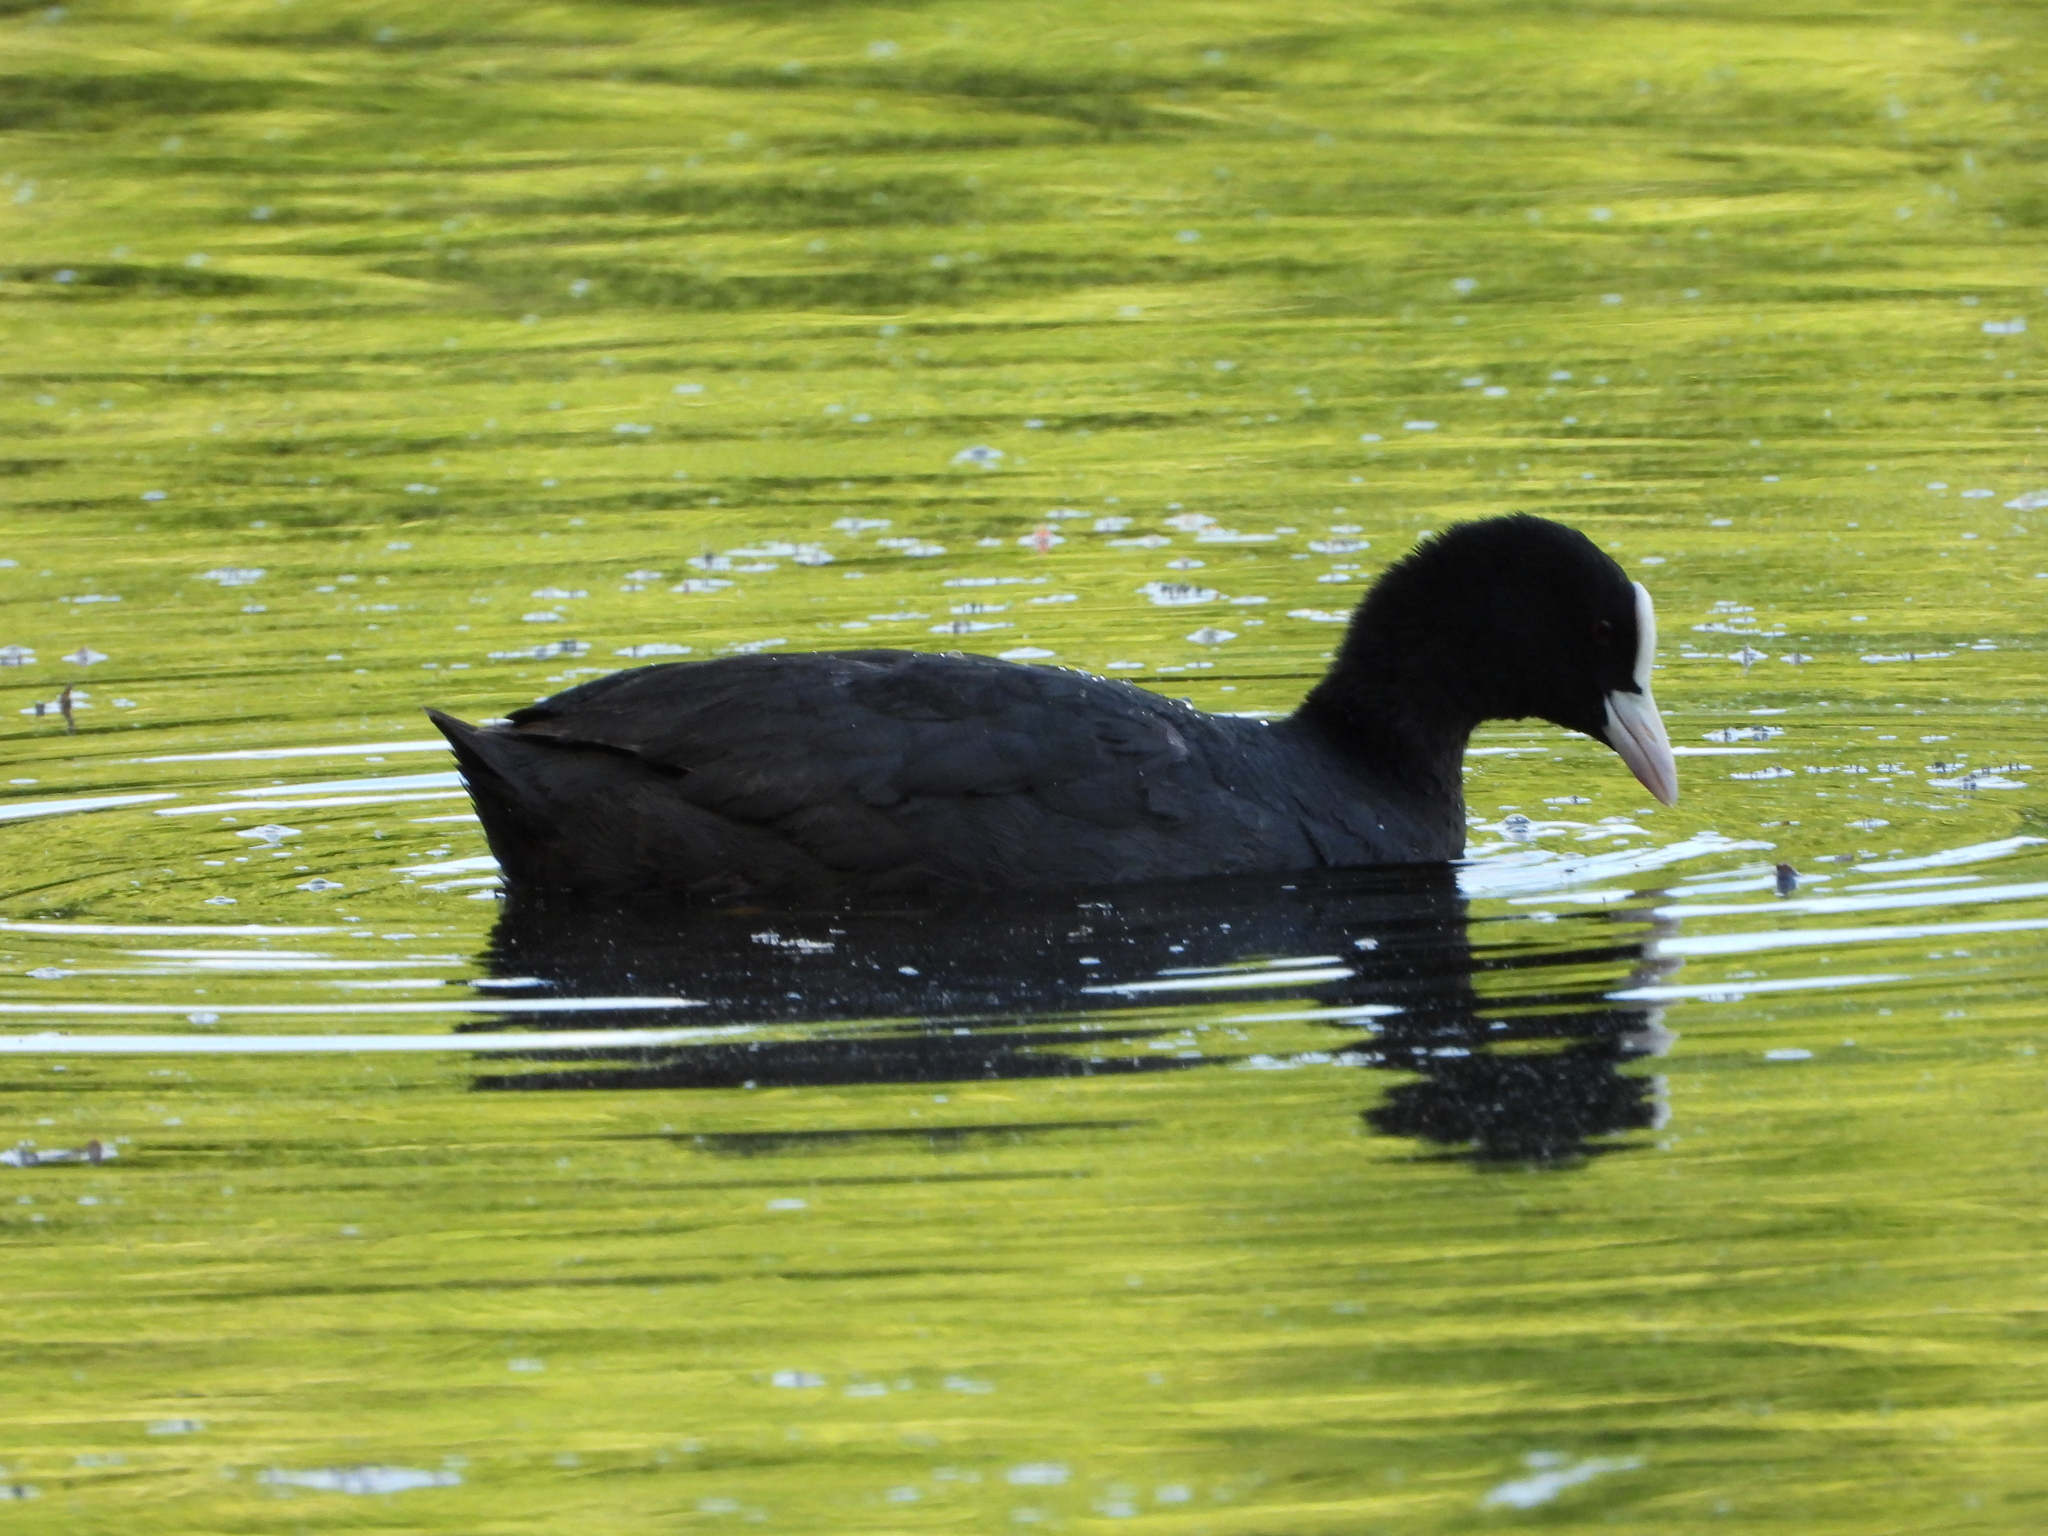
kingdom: Animalia
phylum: Chordata
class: Aves
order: Gruiformes
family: Rallidae
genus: Fulica
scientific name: Fulica atra
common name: Eurasian coot
